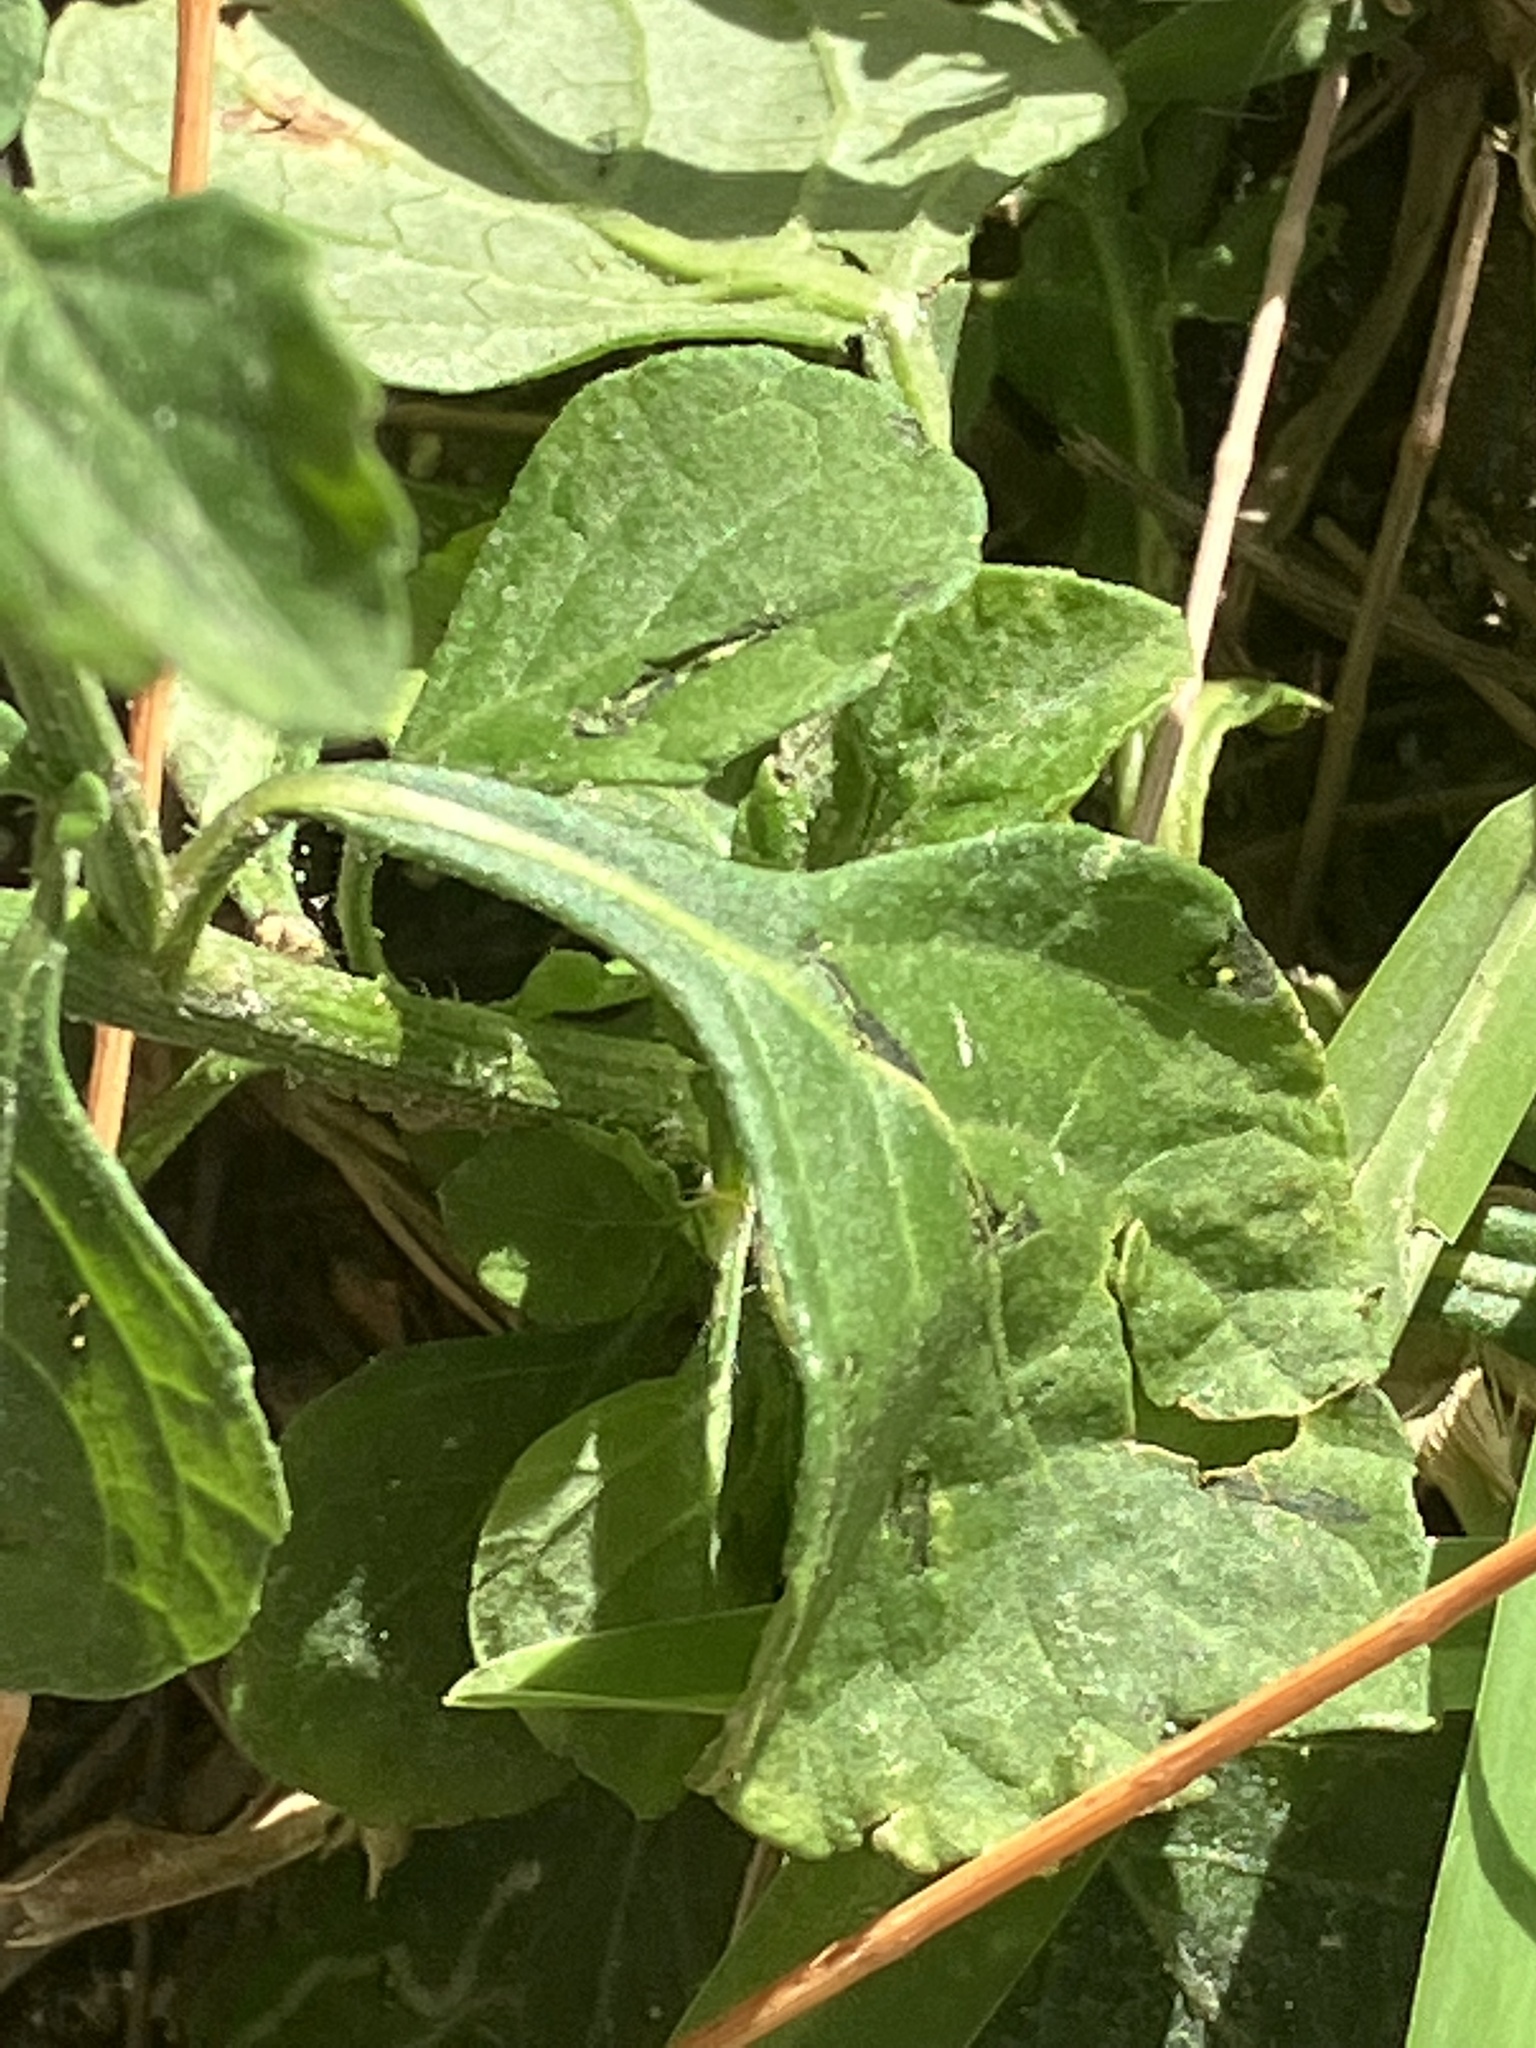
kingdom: Plantae
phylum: Tracheophyta
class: Magnoliopsida
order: Asterales
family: Asteraceae
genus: Cyanthillium
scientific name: Cyanthillium cinereum
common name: Little ironweed
